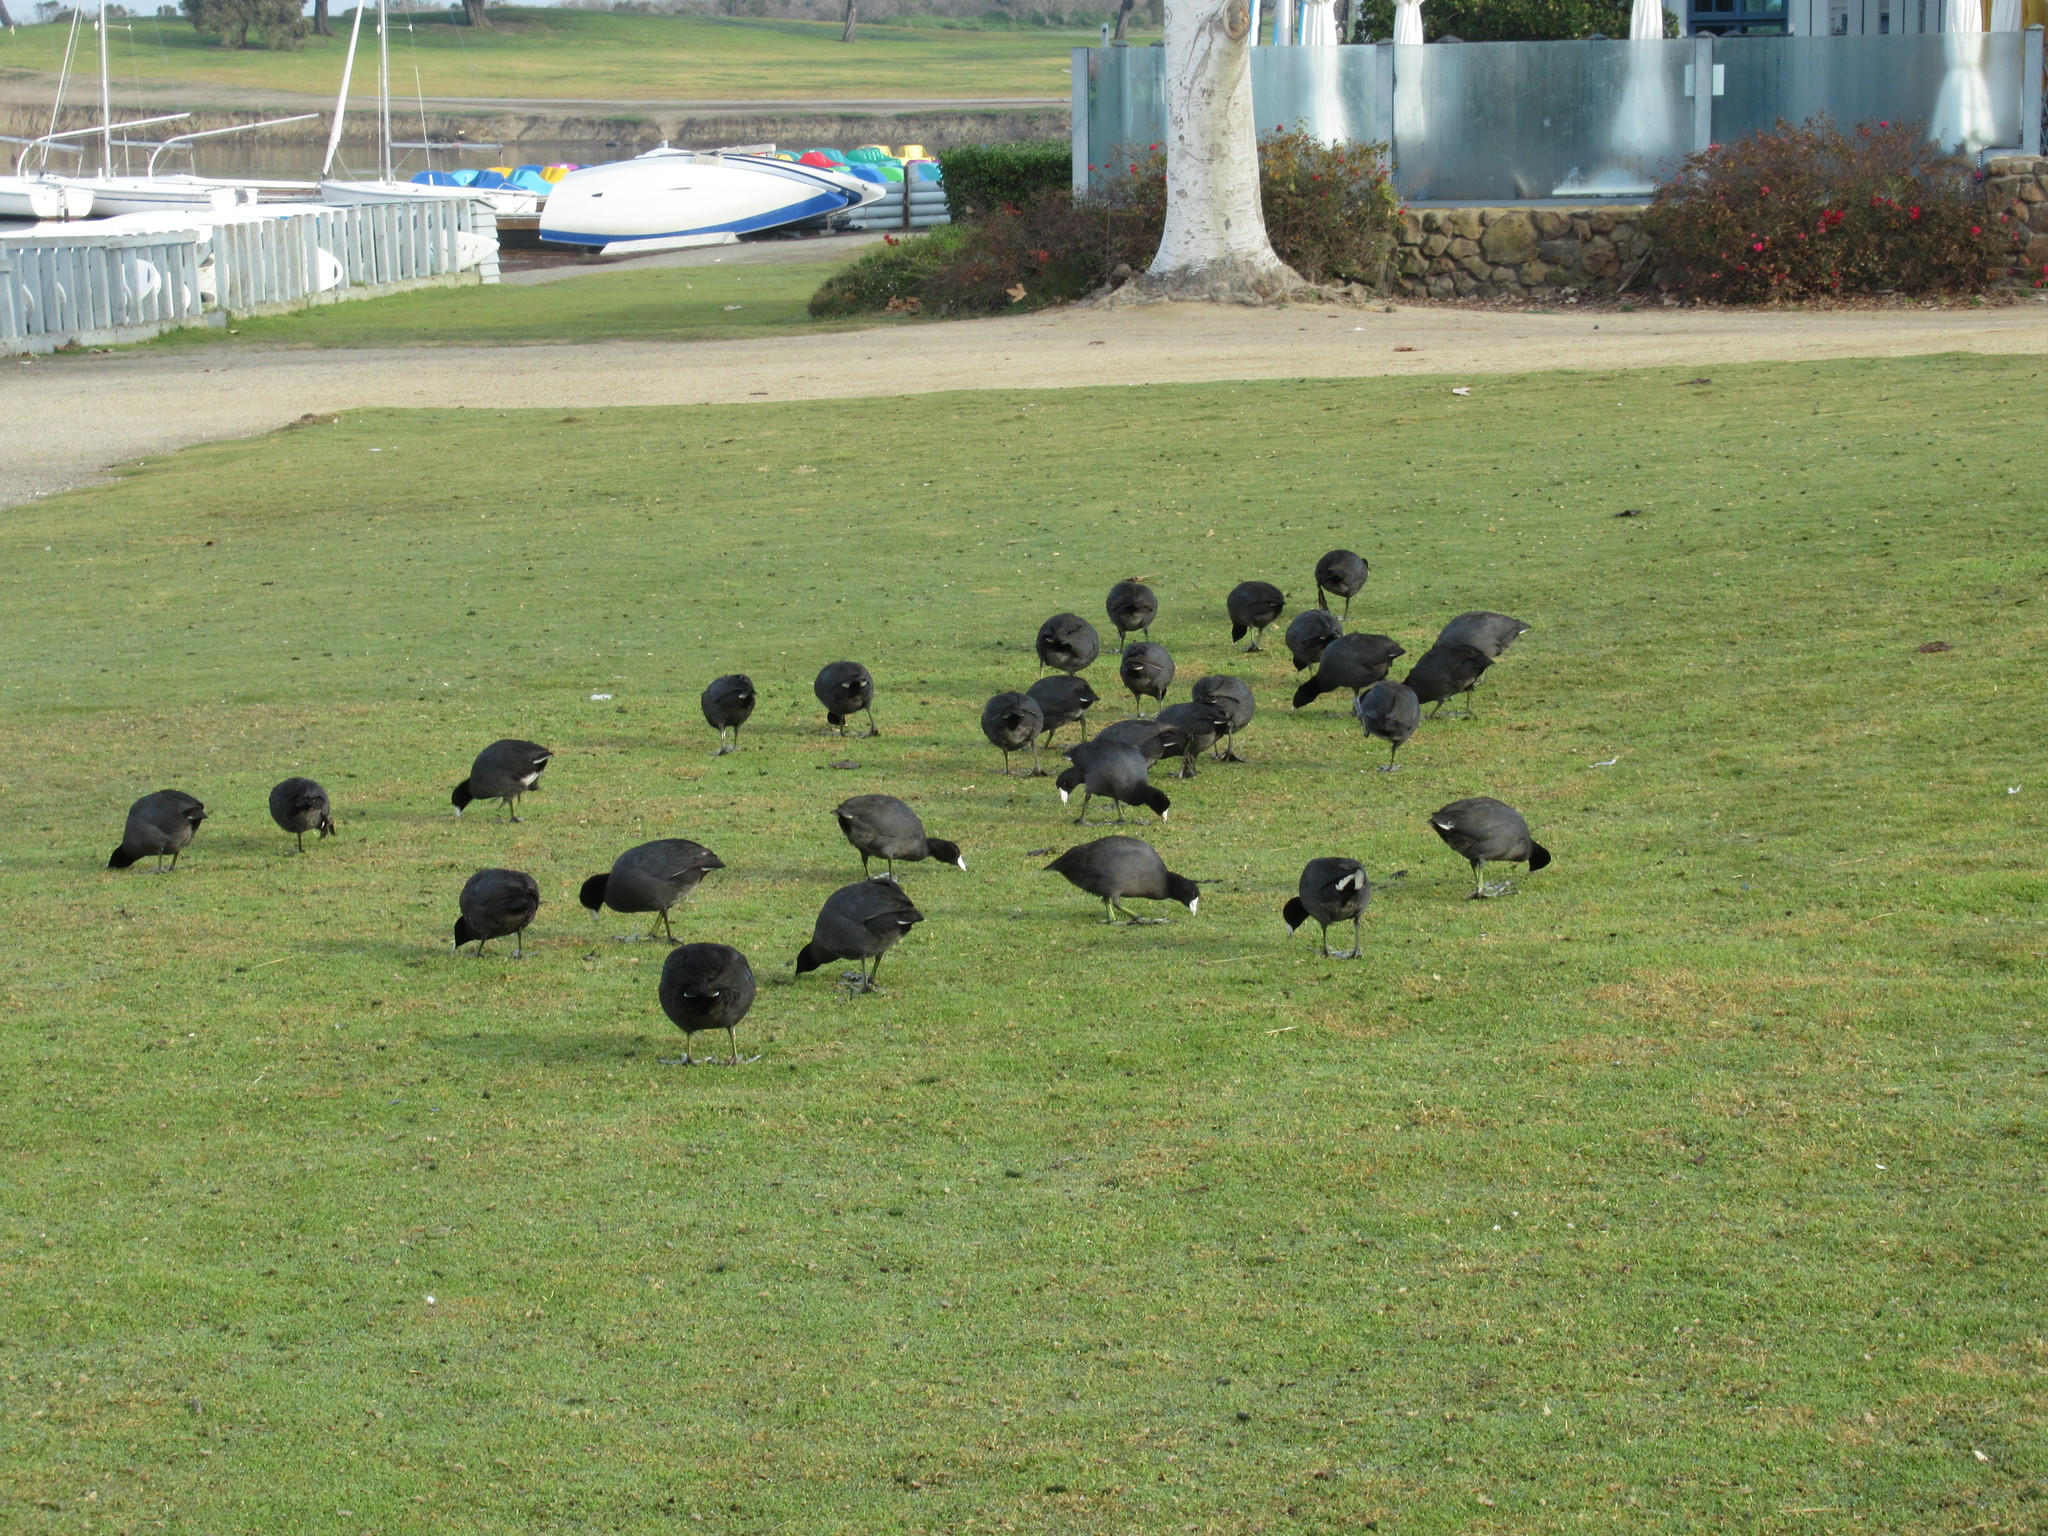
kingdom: Animalia
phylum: Chordata
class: Aves
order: Gruiformes
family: Rallidae
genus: Fulica
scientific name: Fulica americana
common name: American coot
